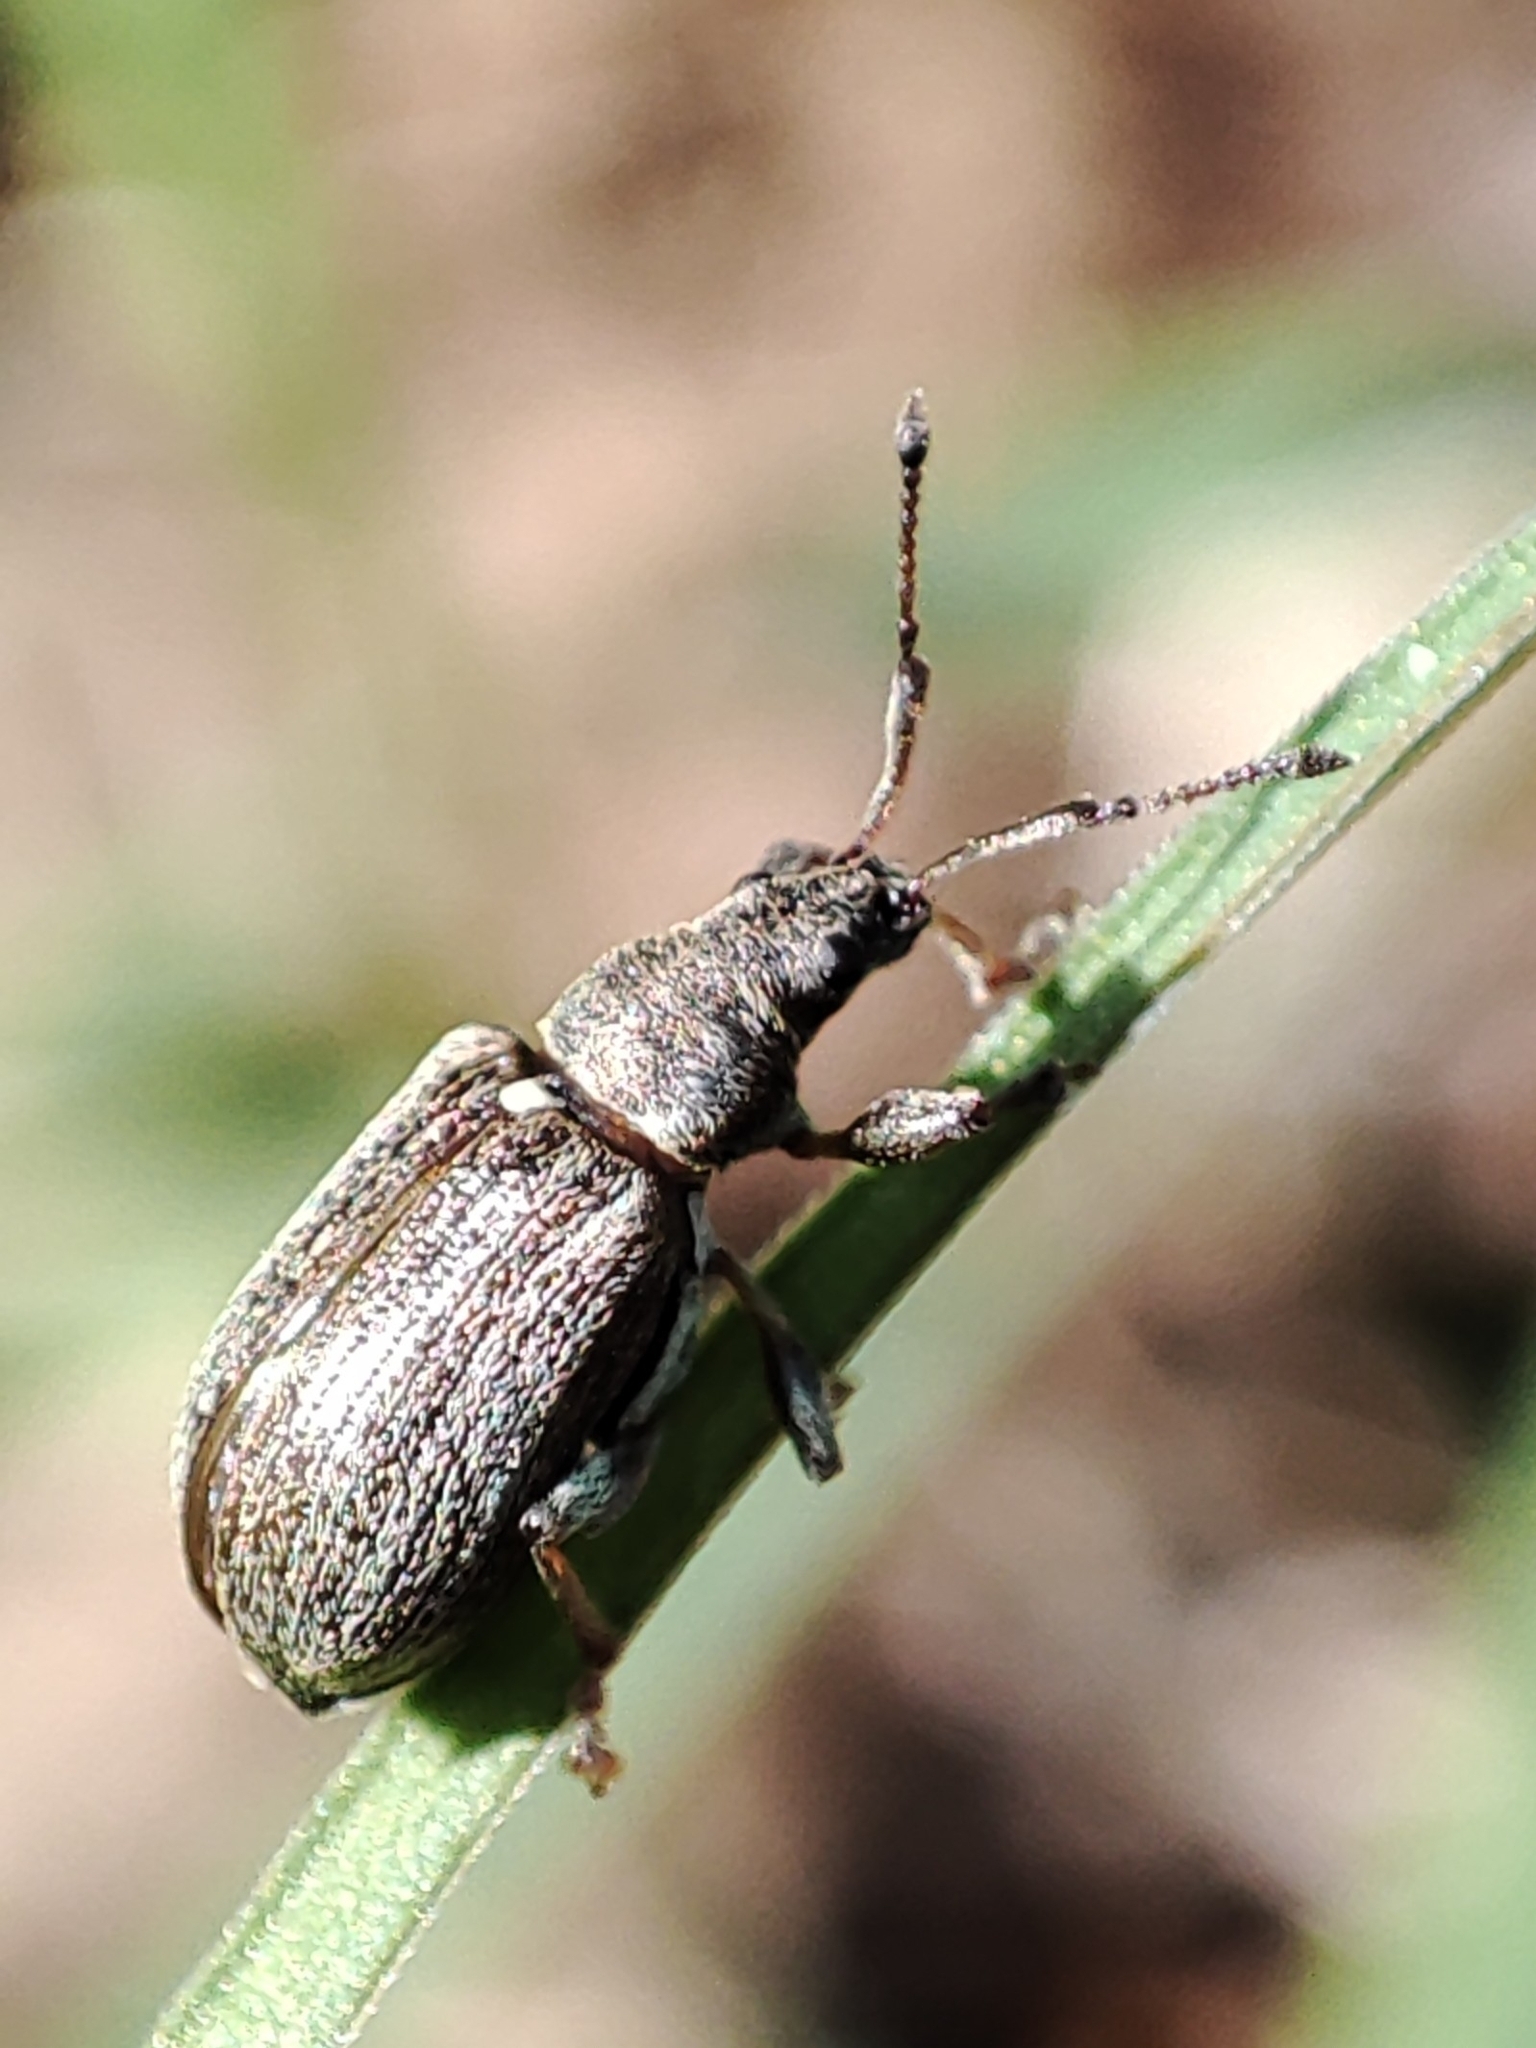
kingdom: Animalia
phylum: Arthropoda
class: Insecta
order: Coleoptera
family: Curculionidae
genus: Phyllobius
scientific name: Phyllobius pyri
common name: Common leaf weevil
